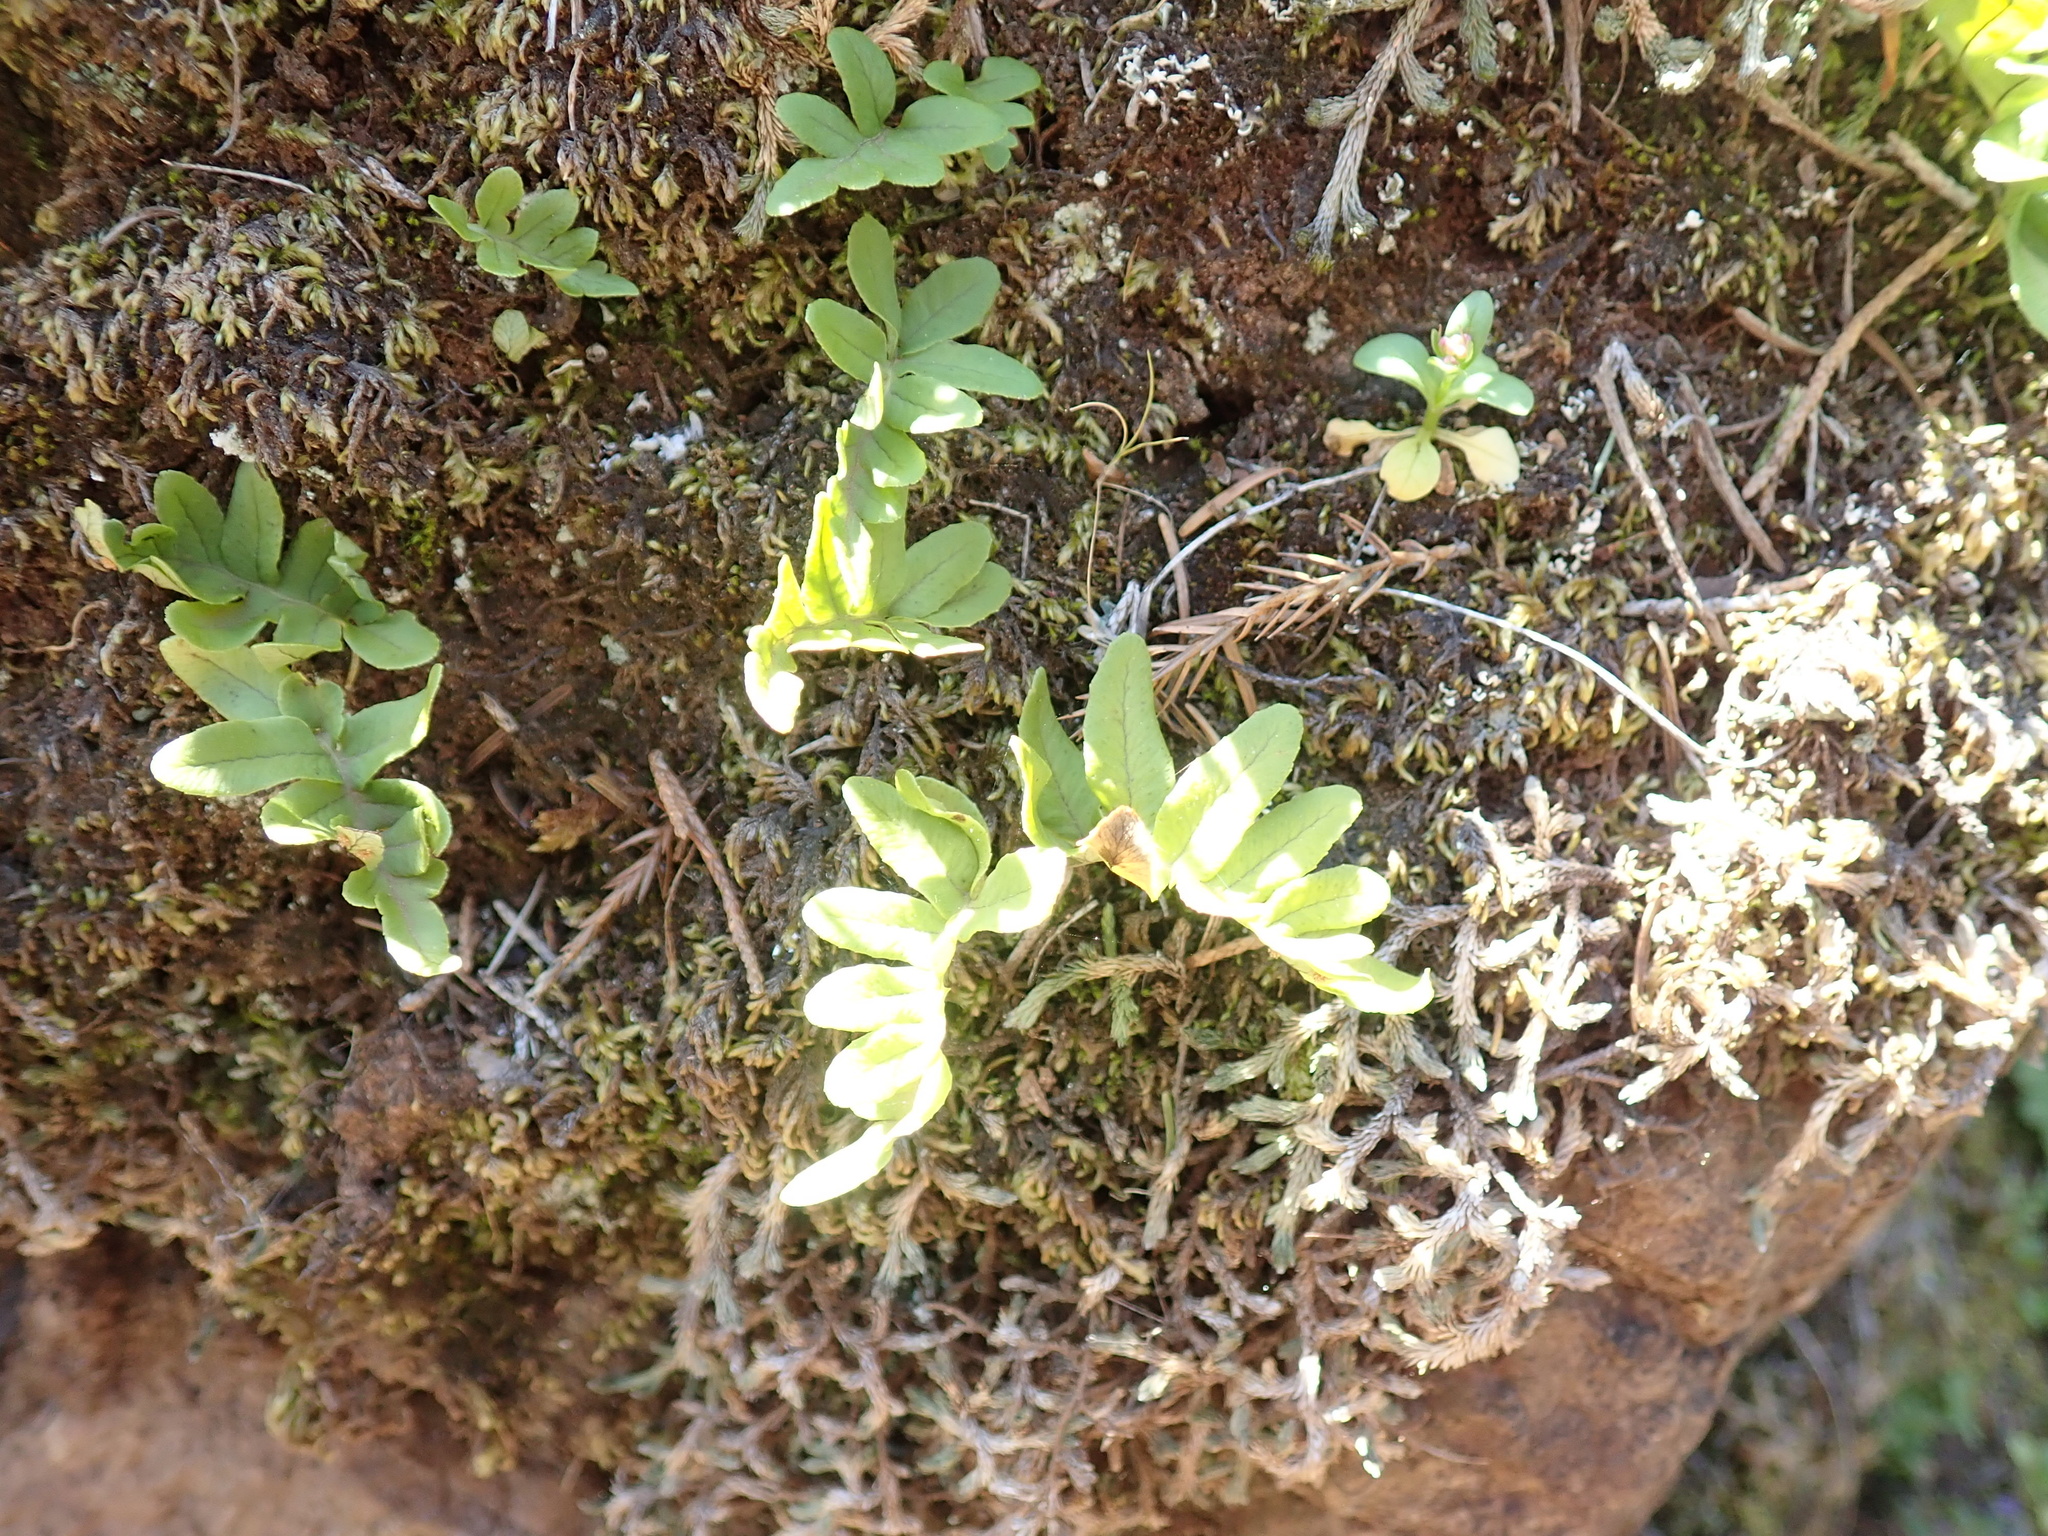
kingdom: Plantae
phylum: Tracheophyta
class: Polypodiopsida
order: Polypodiales
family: Polypodiaceae
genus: Polypodium
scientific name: Polypodium glycyrrhiza
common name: Licorice fern
